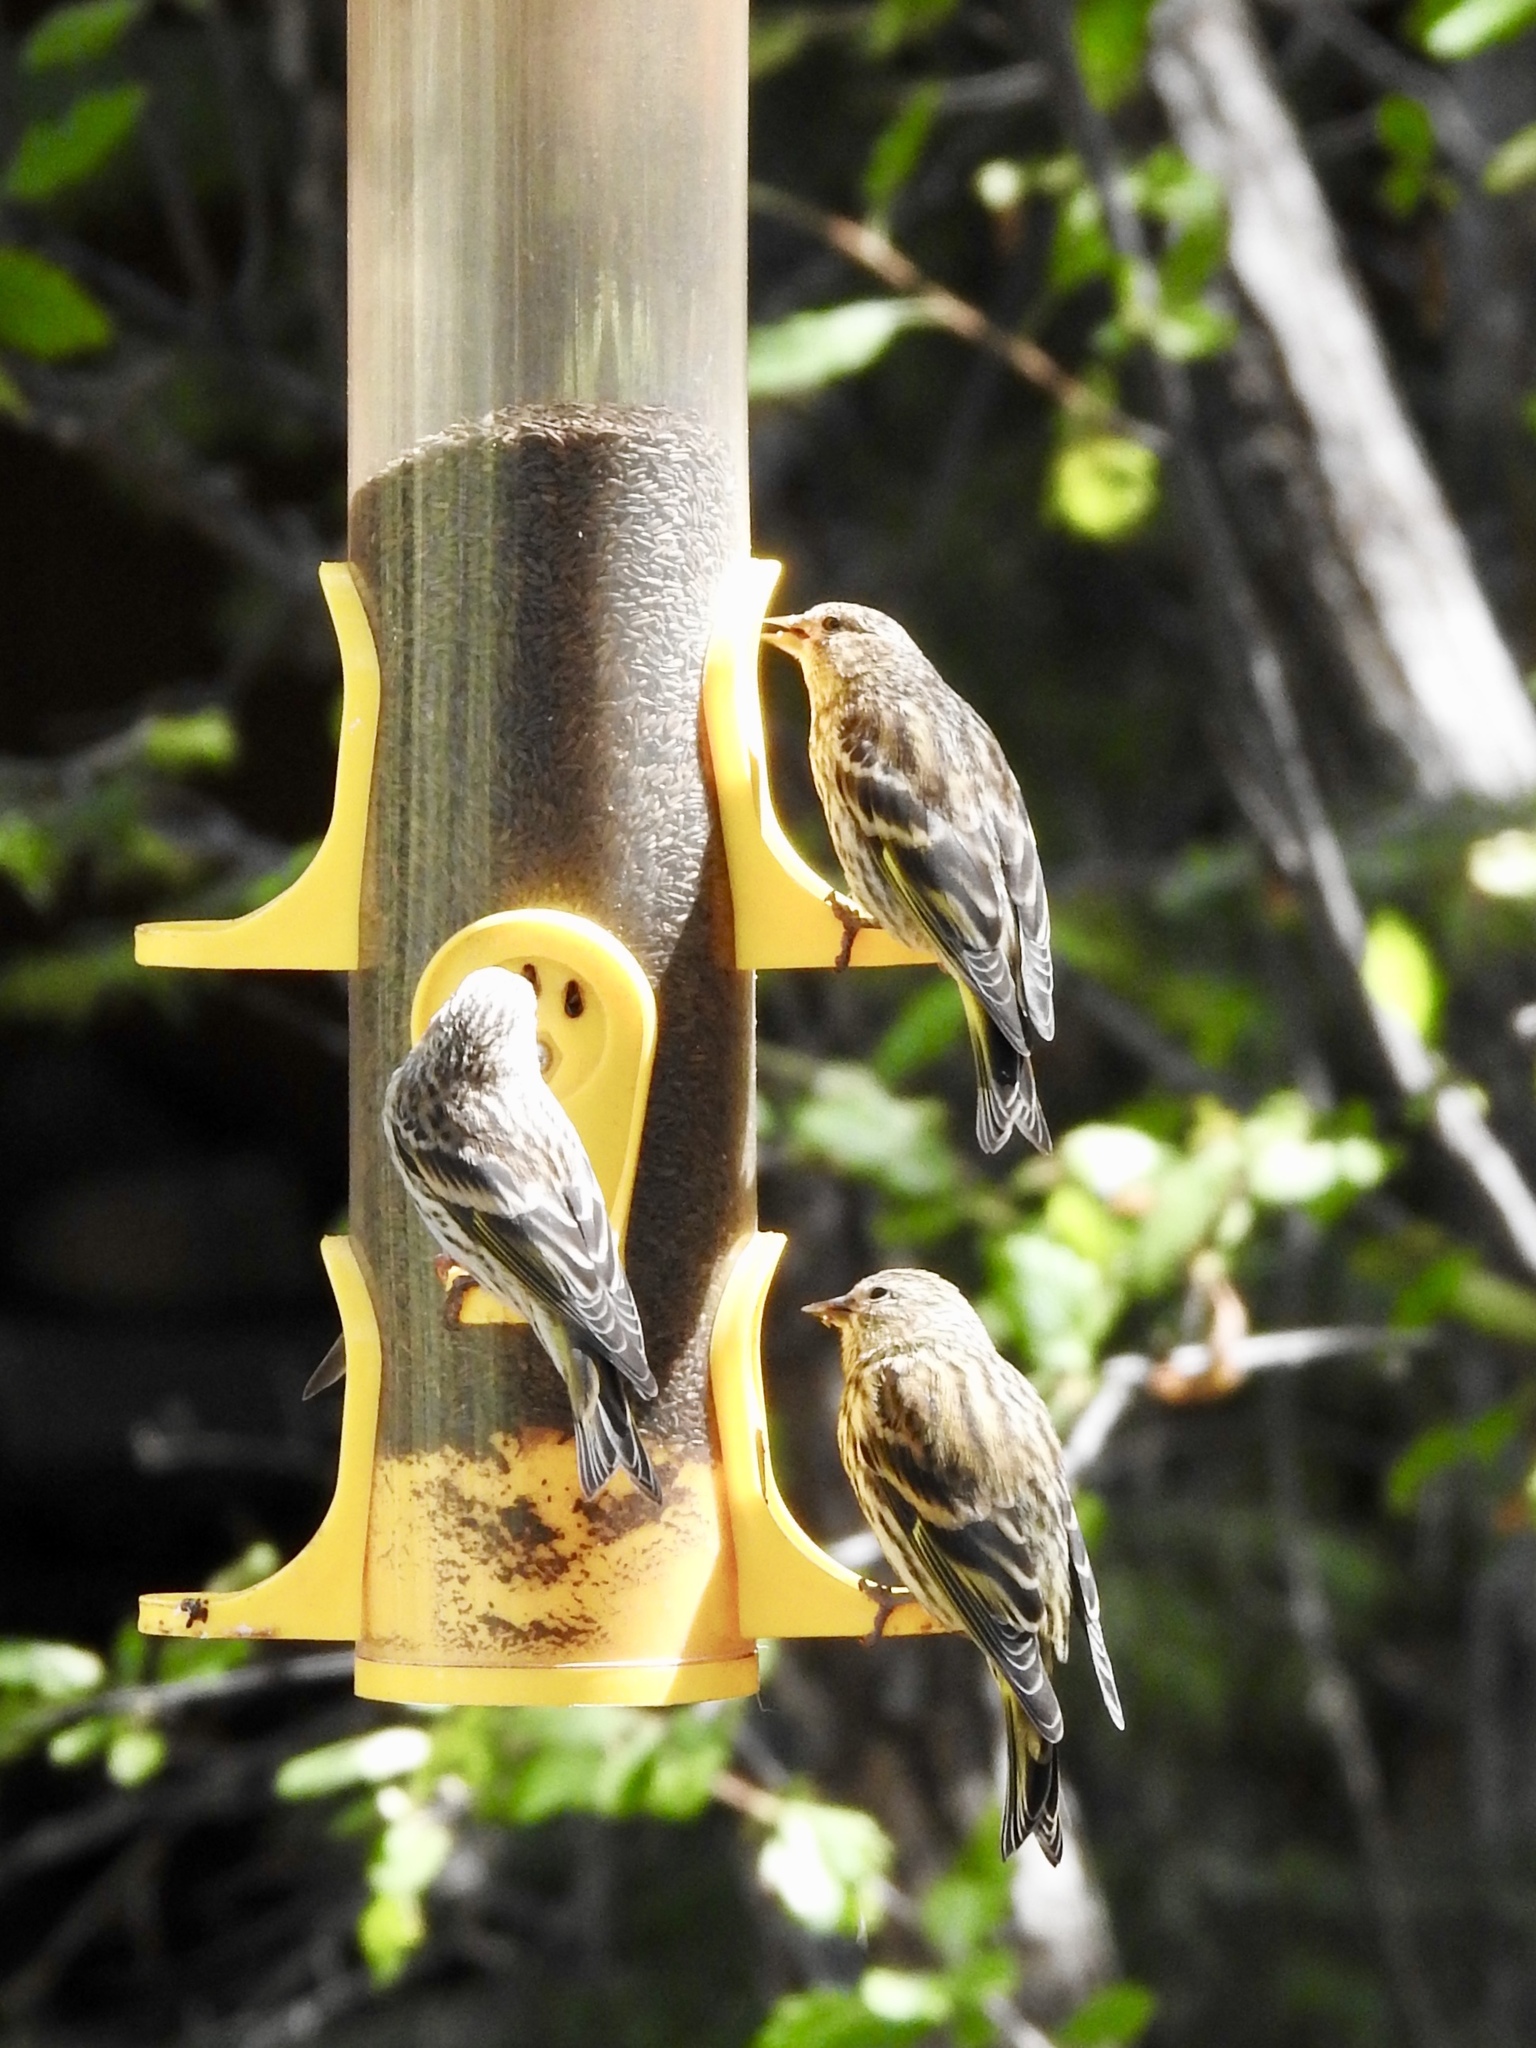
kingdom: Animalia
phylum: Chordata
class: Aves
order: Passeriformes
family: Fringillidae
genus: Spinus
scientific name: Spinus pinus
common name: Pine siskin
